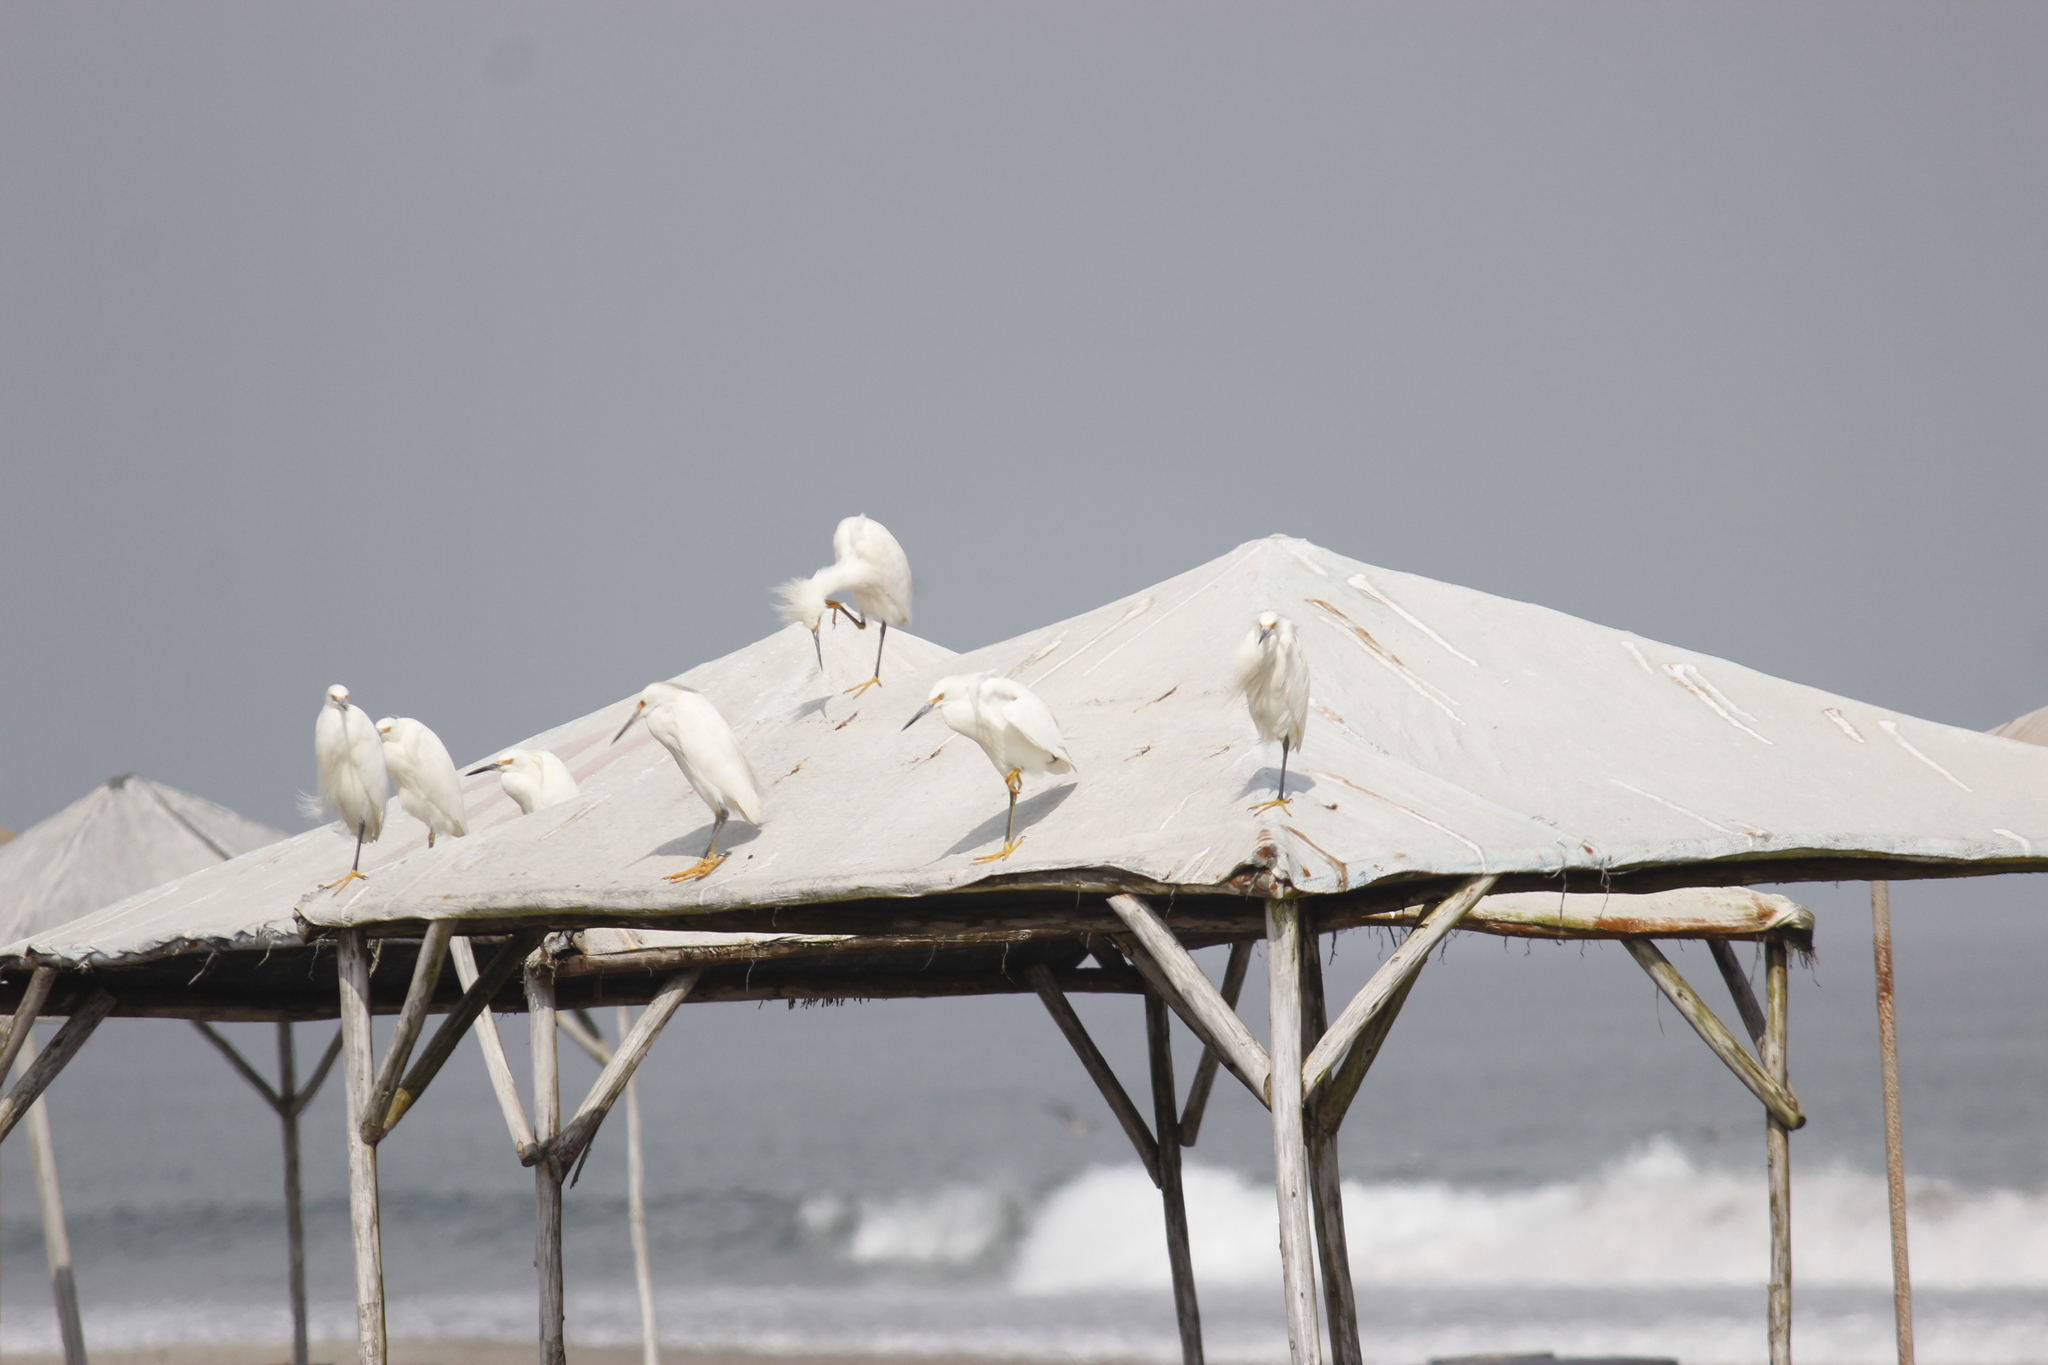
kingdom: Animalia
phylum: Chordata
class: Aves
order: Pelecaniformes
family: Ardeidae
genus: Egretta
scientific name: Egretta thula
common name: Snowy egret
